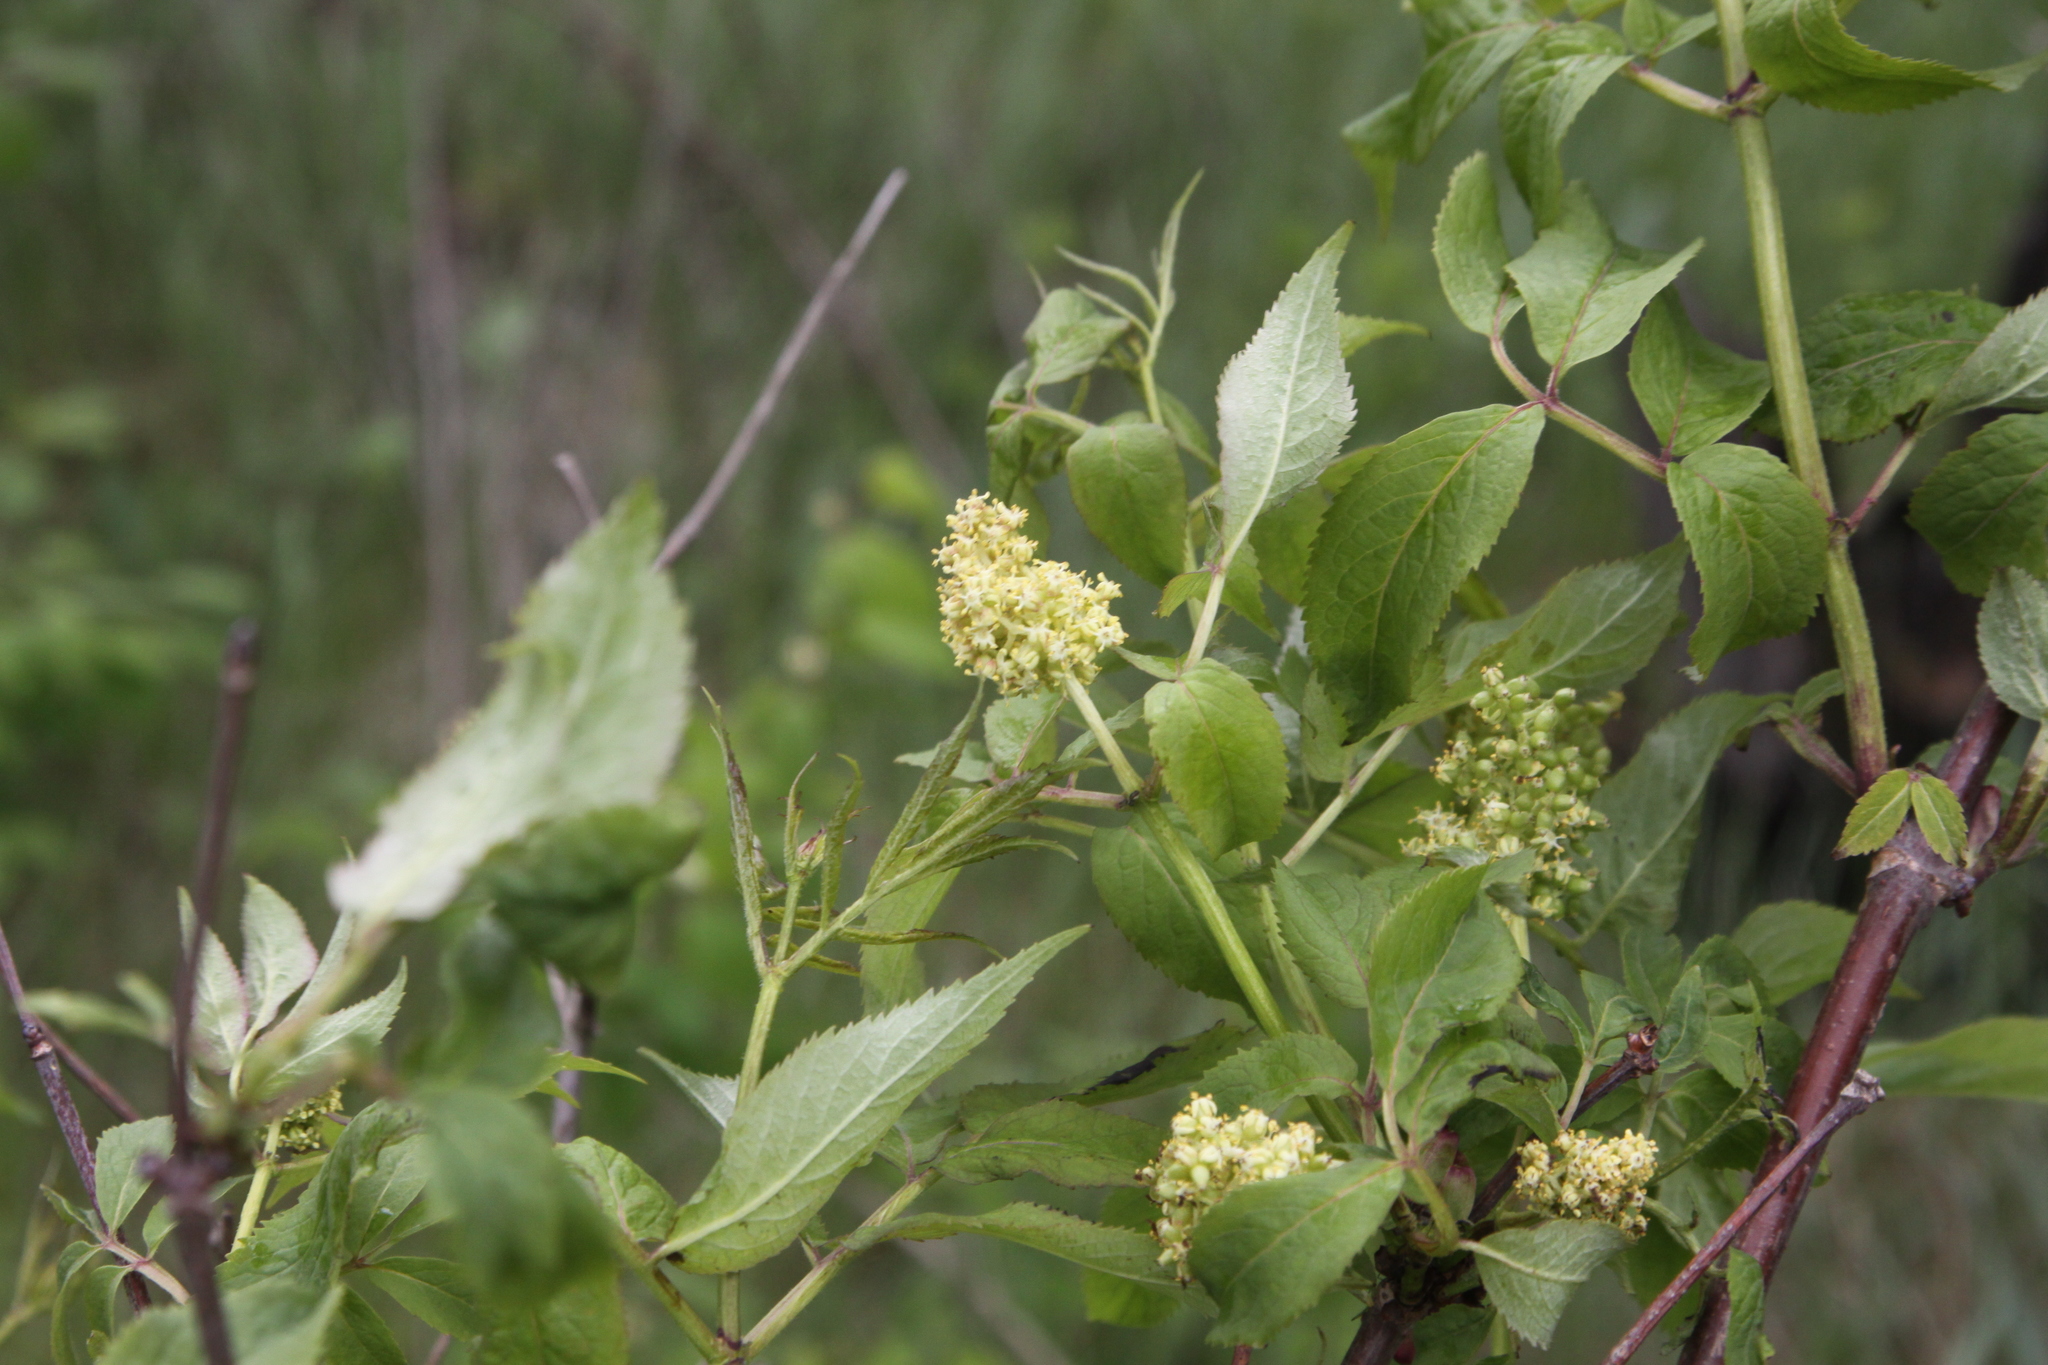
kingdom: Plantae
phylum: Tracheophyta
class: Magnoliopsida
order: Dipsacales
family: Viburnaceae
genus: Sambucus
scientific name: Sambucus racemosa
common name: Red-berried elder
